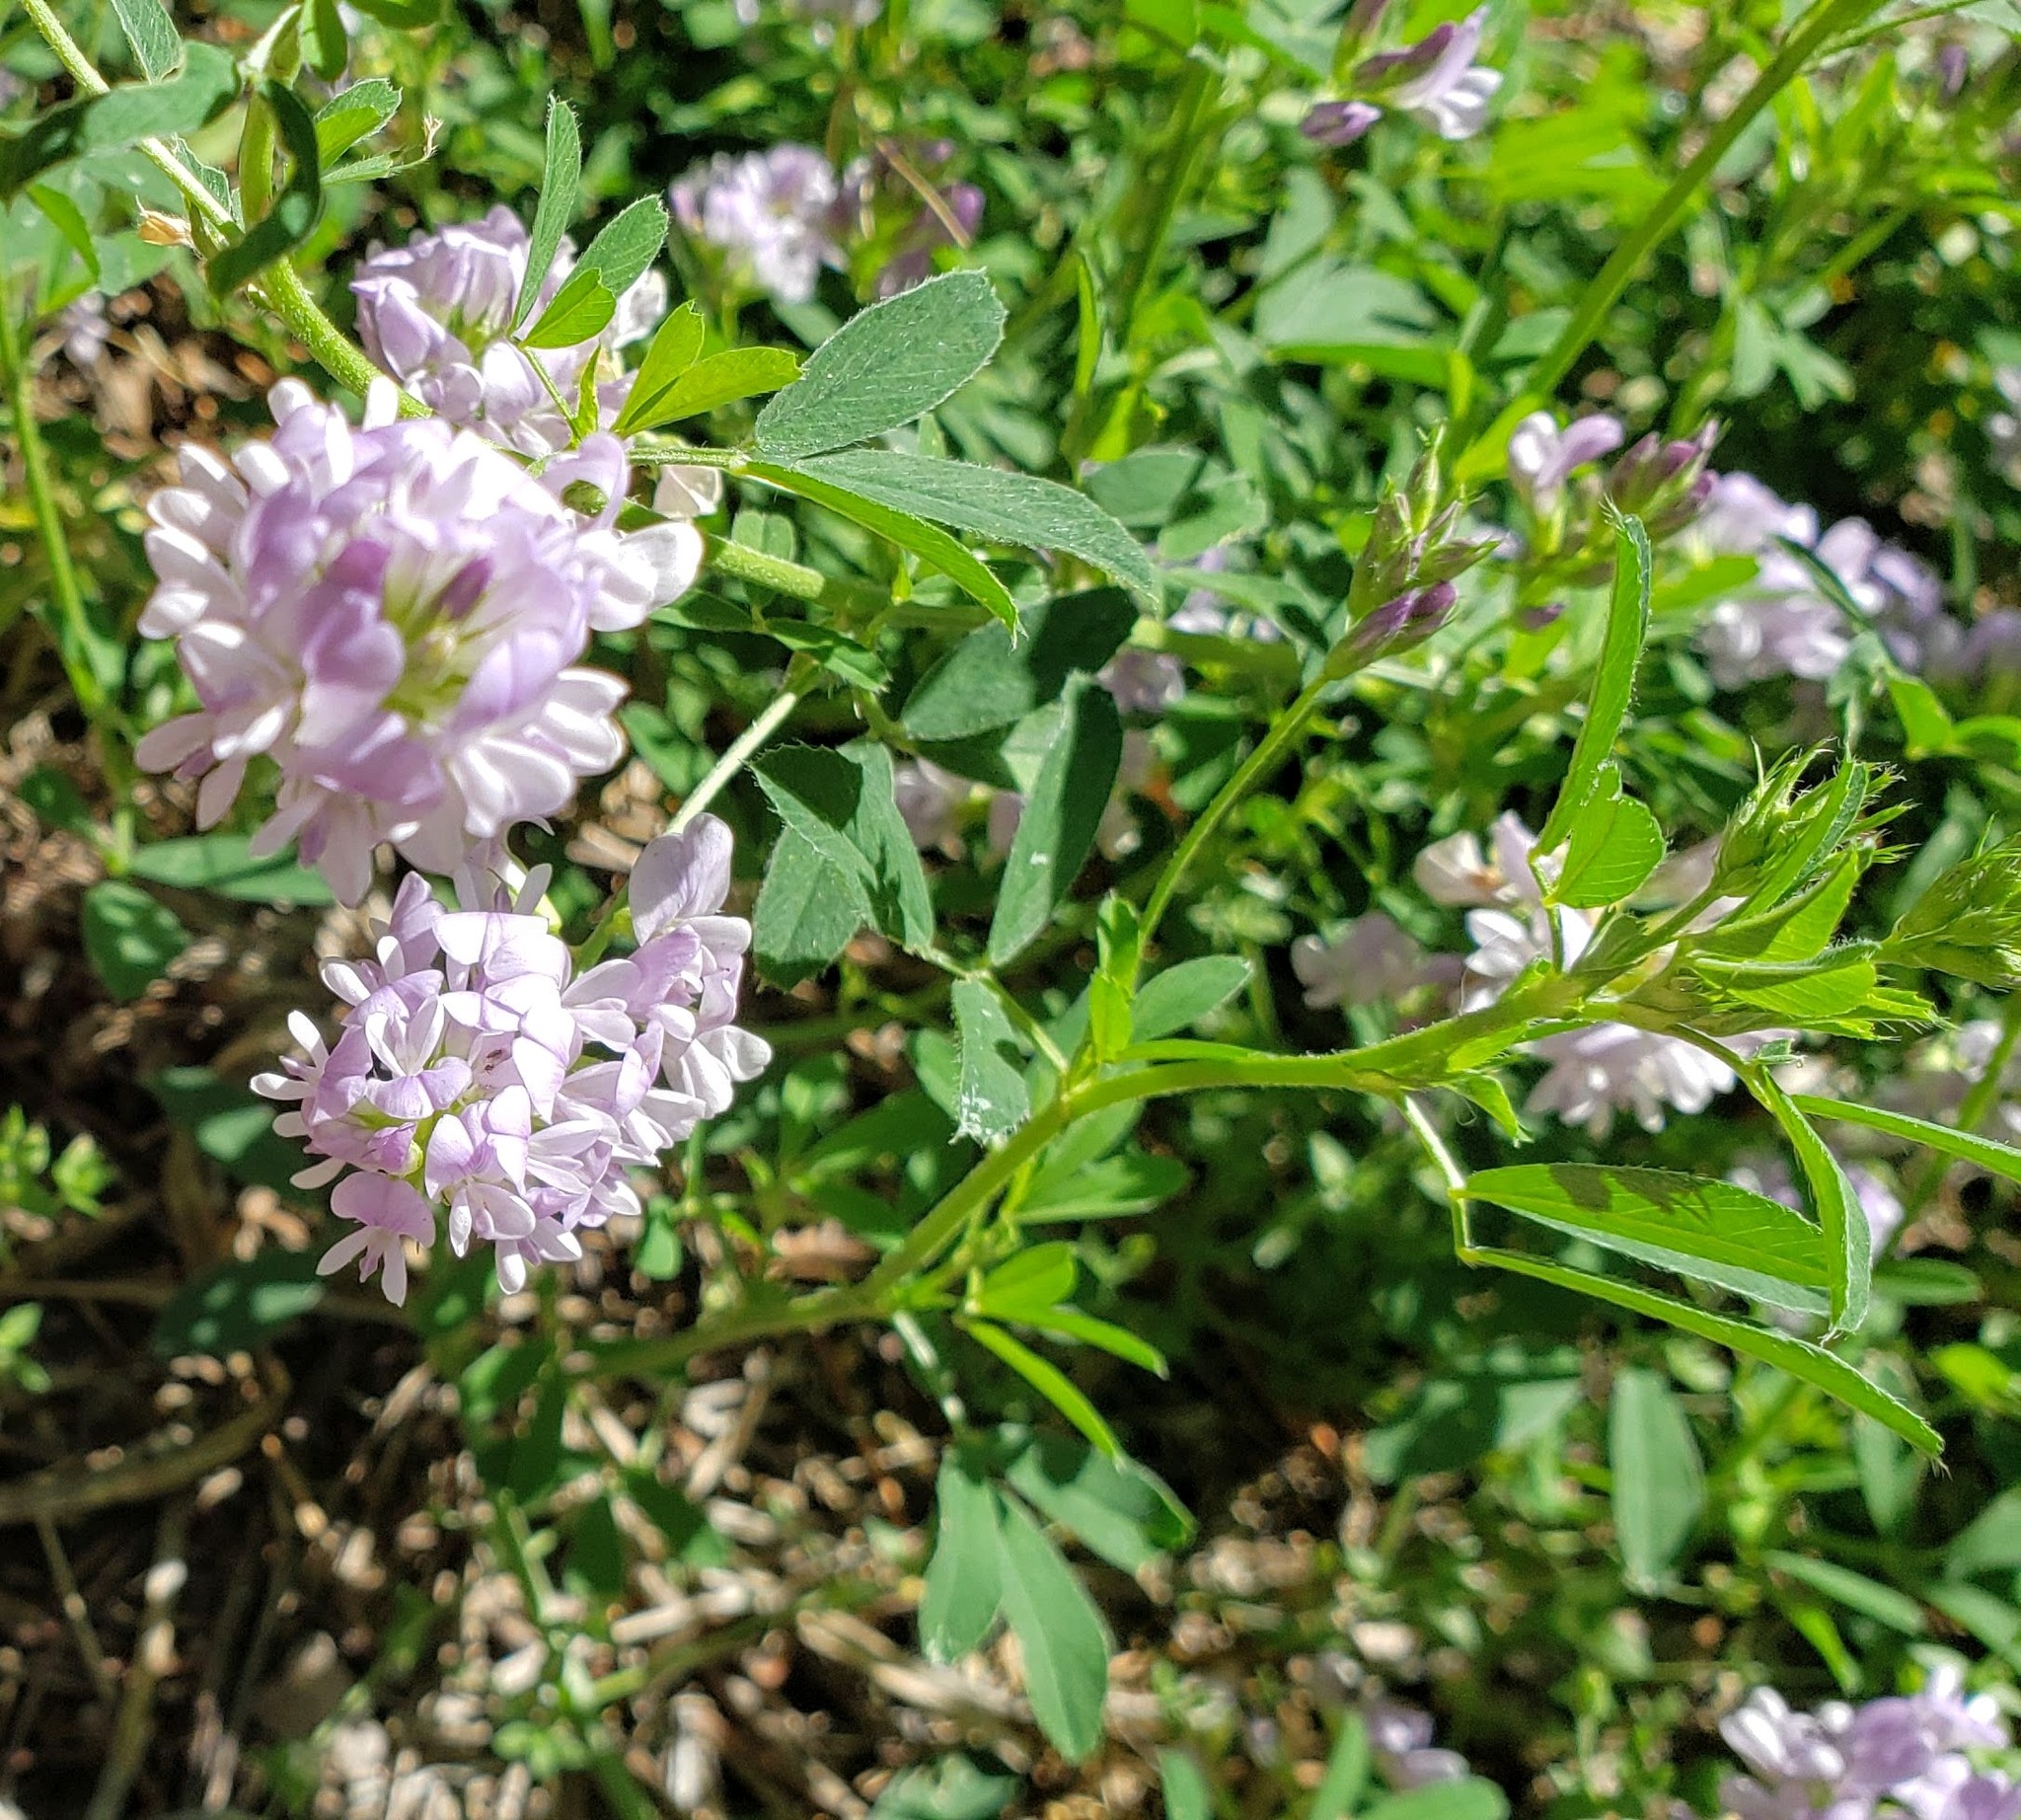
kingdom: Plantae
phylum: Tracheophyta
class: Magnoliopsida
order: Fabales
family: Fabaceae
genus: Medicago
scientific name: Medicago sativa
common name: Alfalfa
